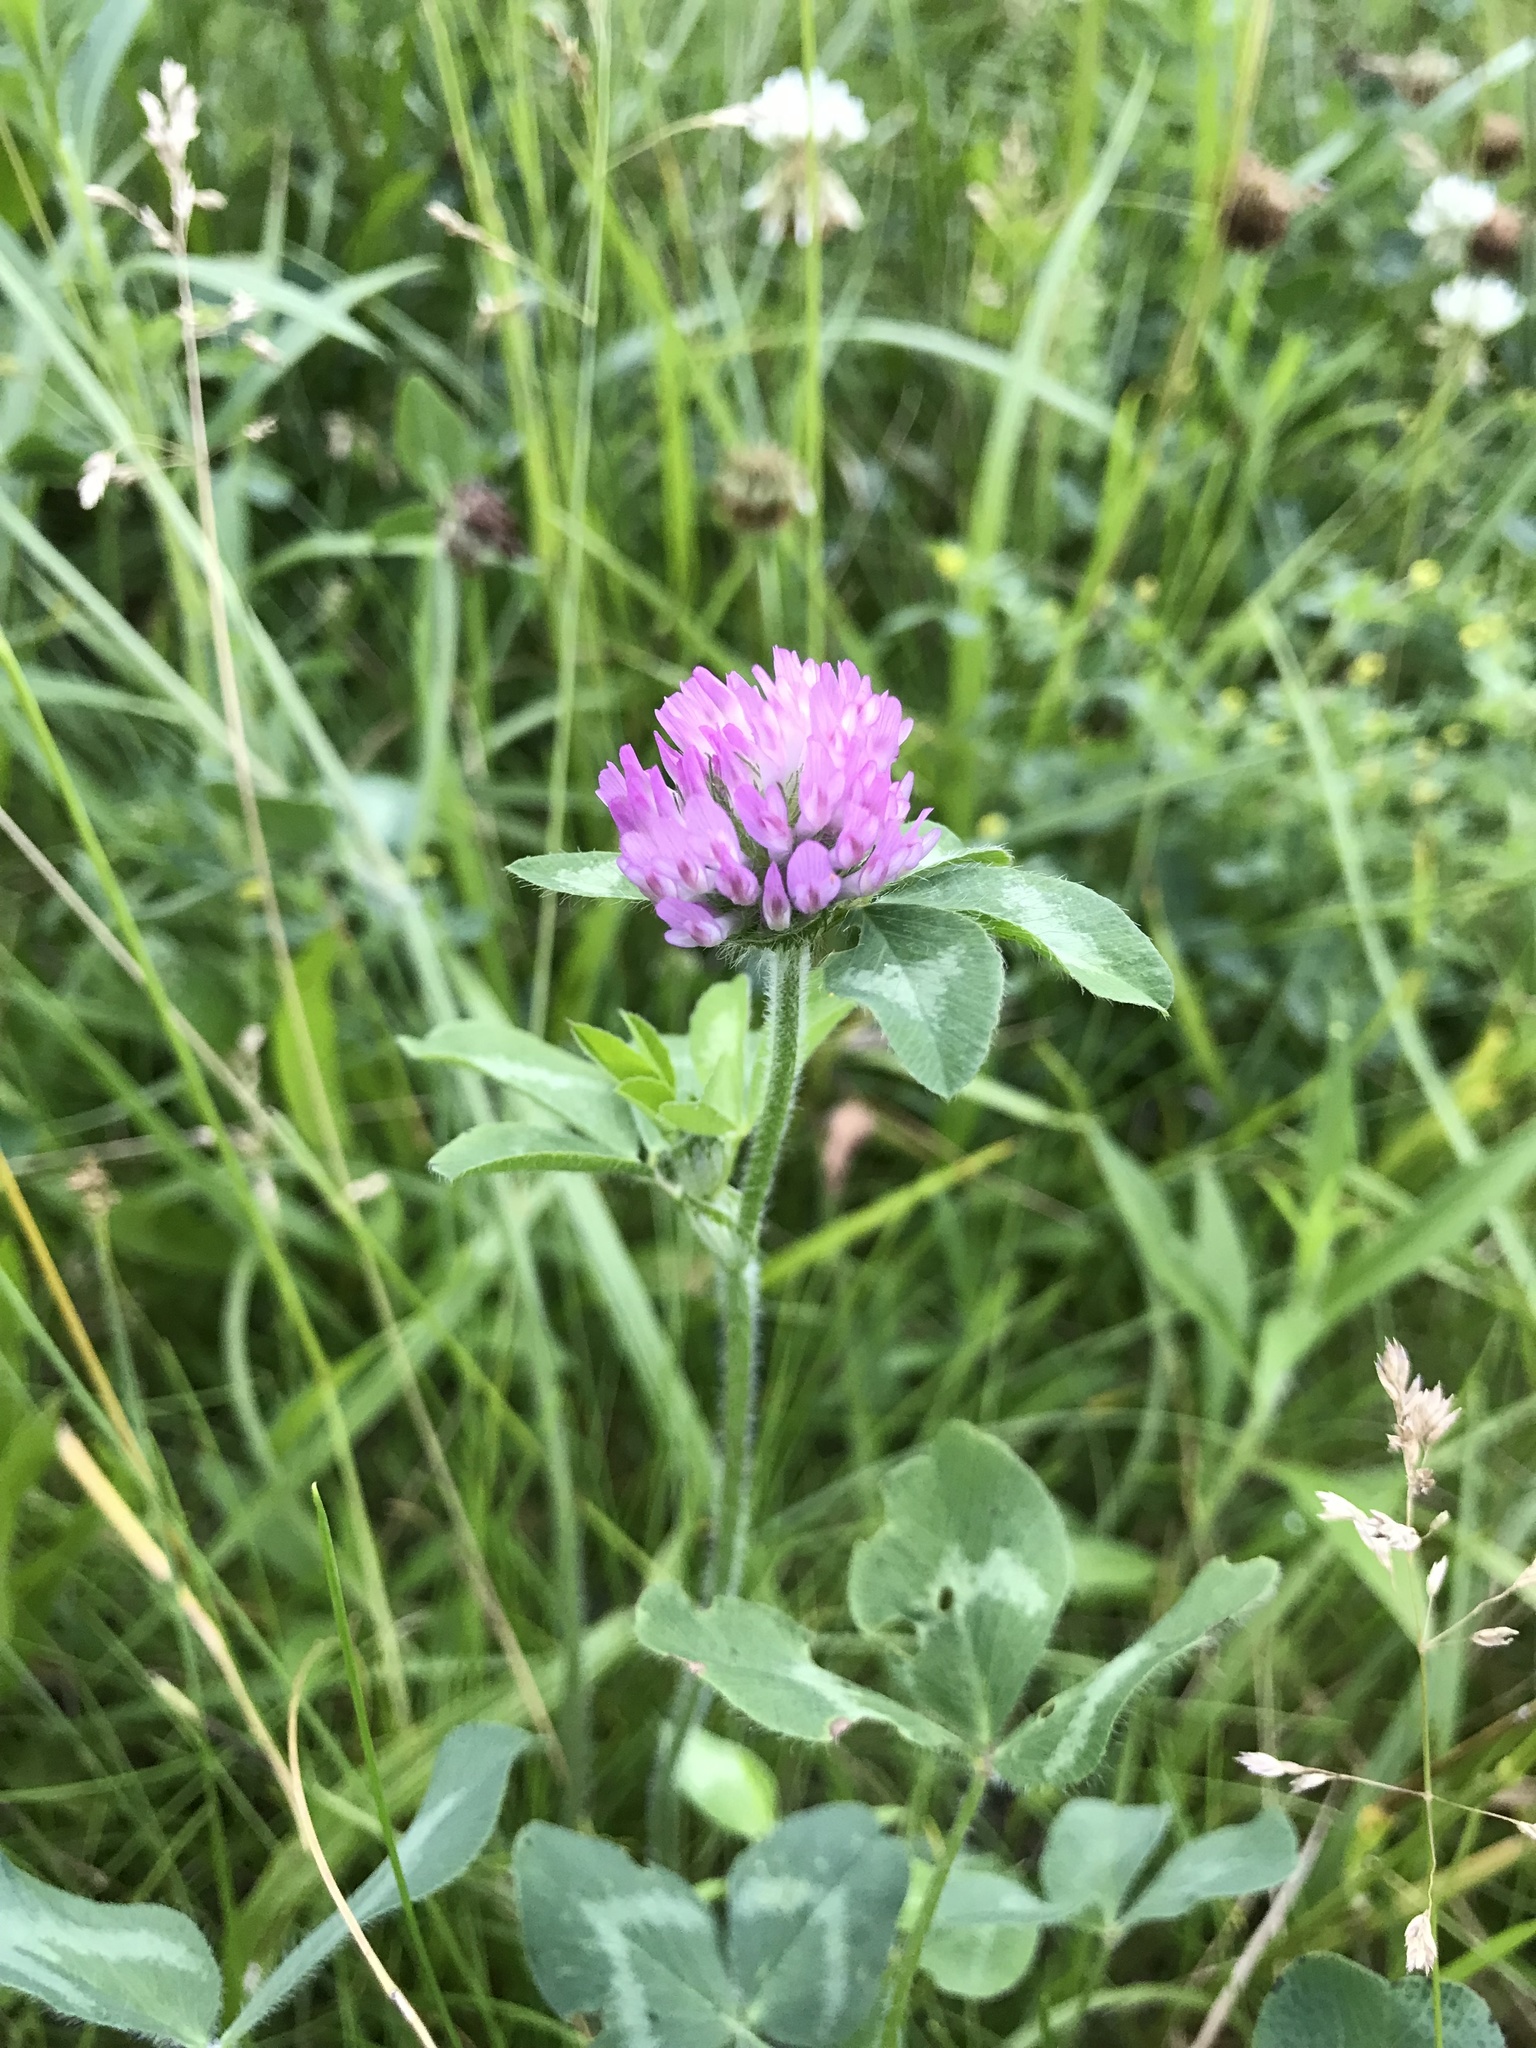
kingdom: Plantae
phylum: Tracheophyta
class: Magnoliopsida
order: Fabales
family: Fabaceae
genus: Trifolium
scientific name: Trifolium pratense
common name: Red clover
